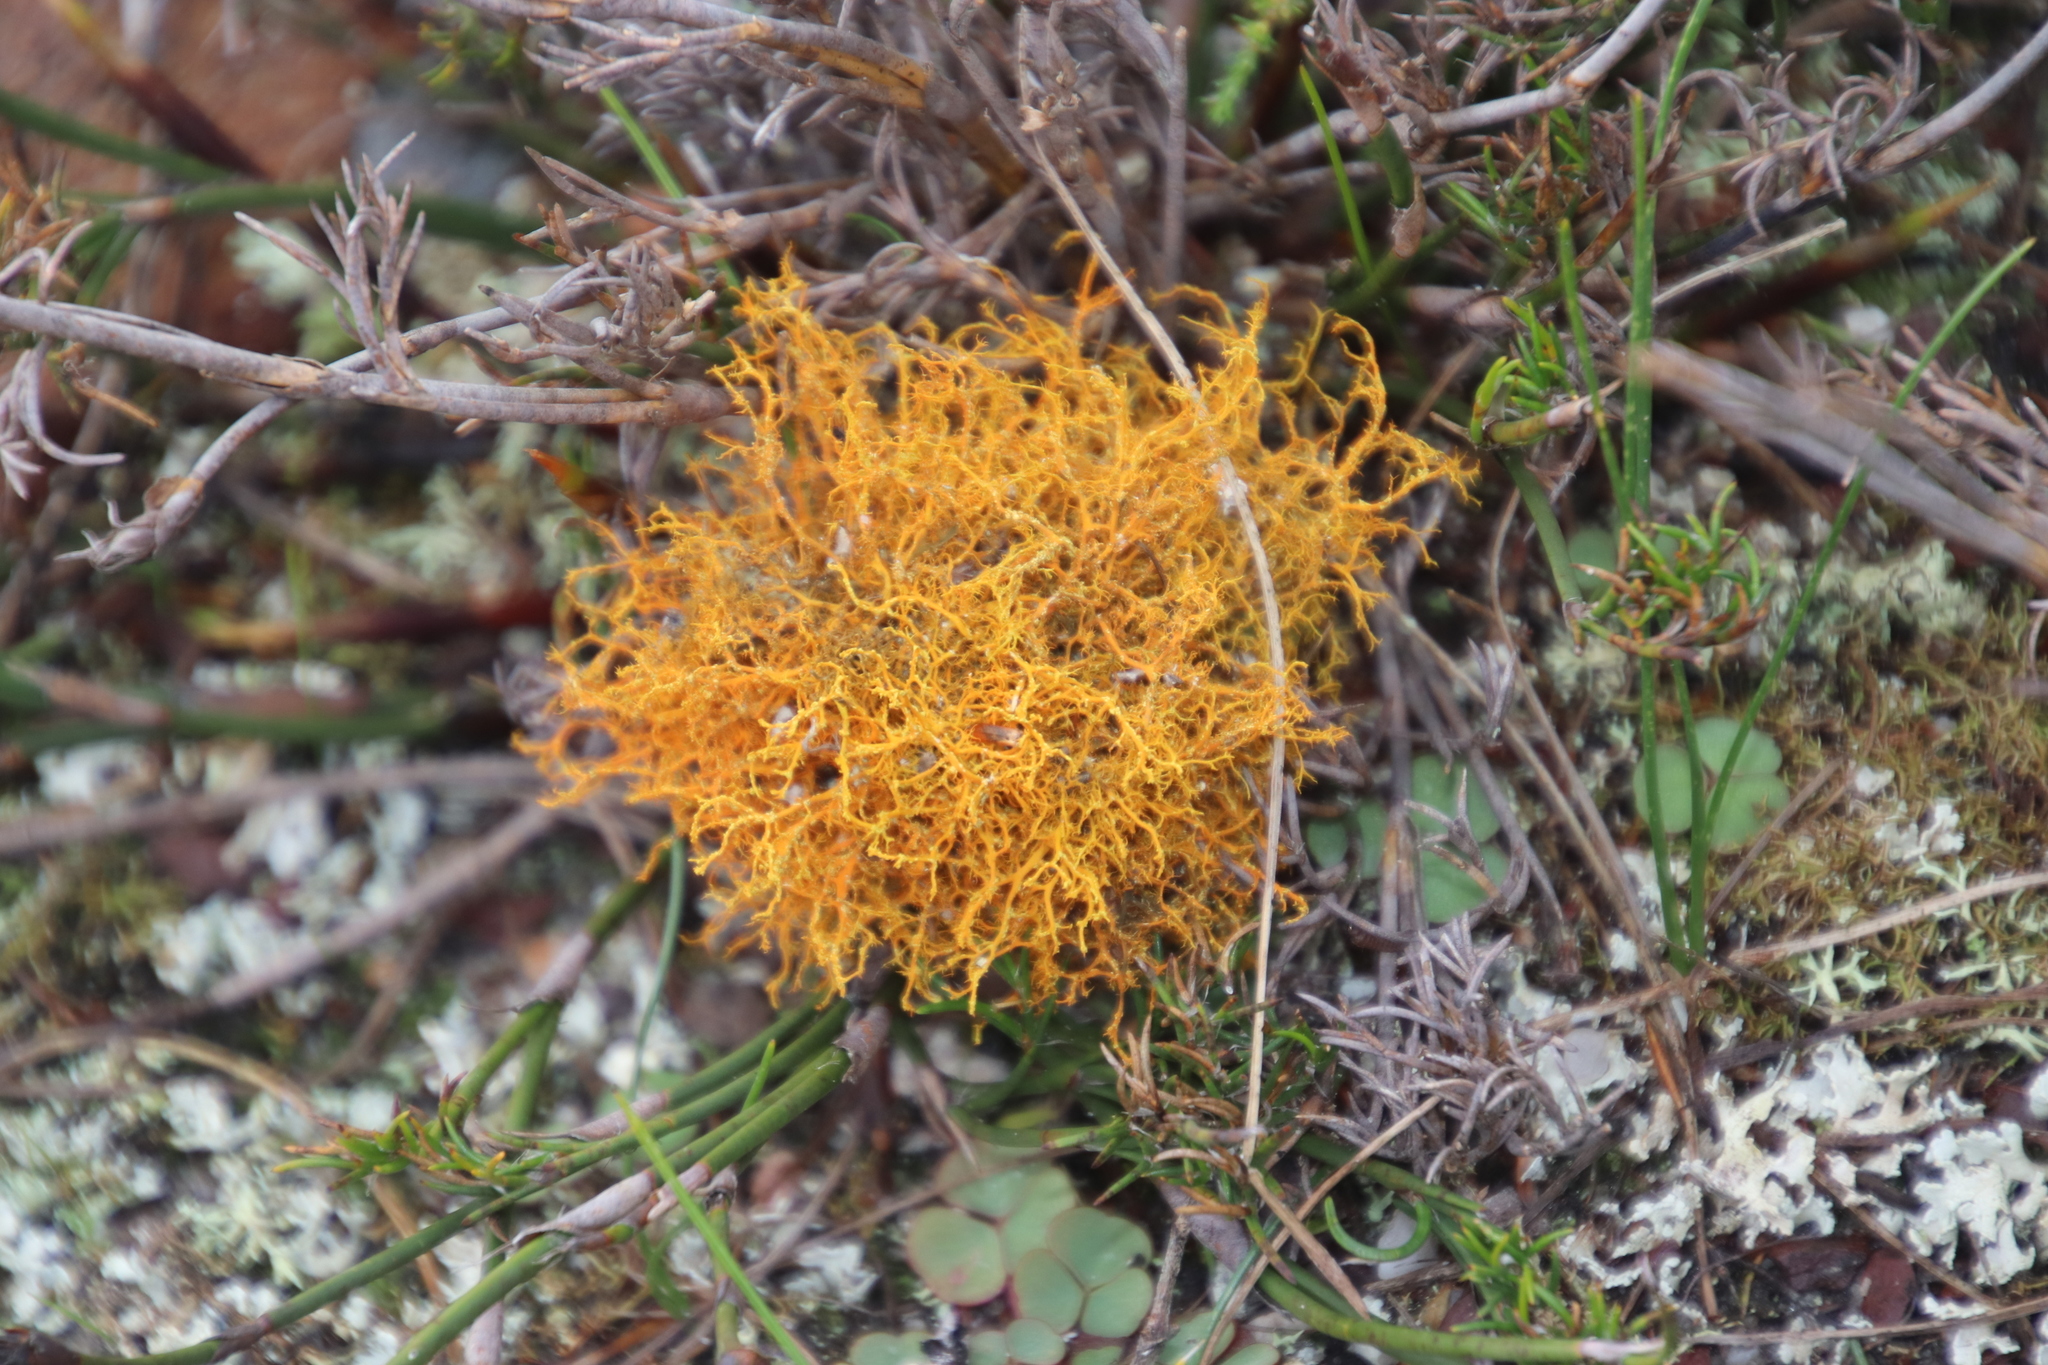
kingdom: Fungi
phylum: Ascomycota
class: Lecanoromycetes
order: Teloschistales
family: Teloschistaceae
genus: Teloschistes
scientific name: Teloschistes flavicans
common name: Golden hair-lichen
